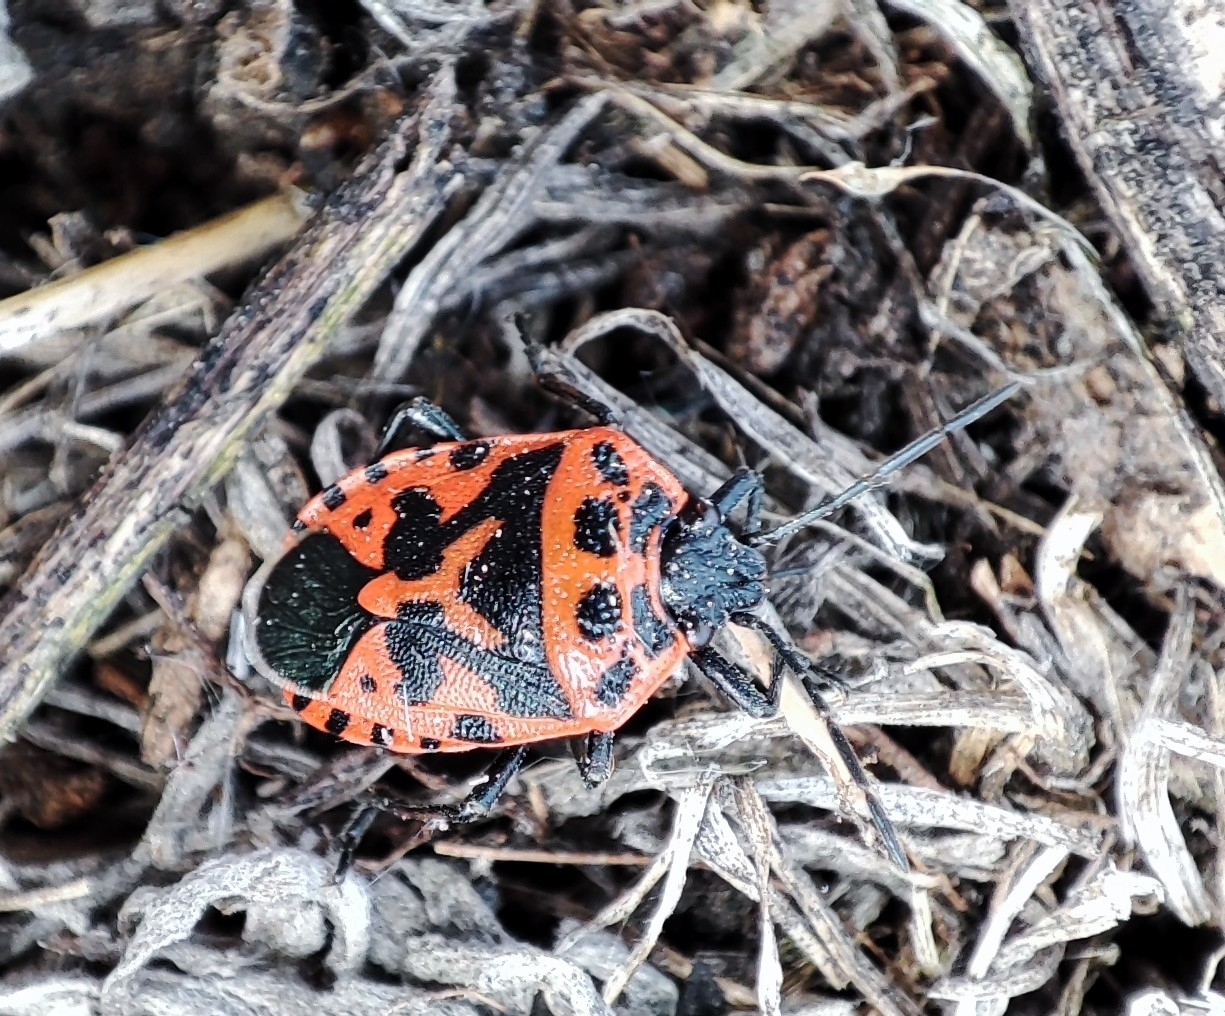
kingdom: Animalia
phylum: Arthropoda
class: Insecta
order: Hemiptera
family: Pentatomidae
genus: Eurydema
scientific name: Eurydema ventralis
